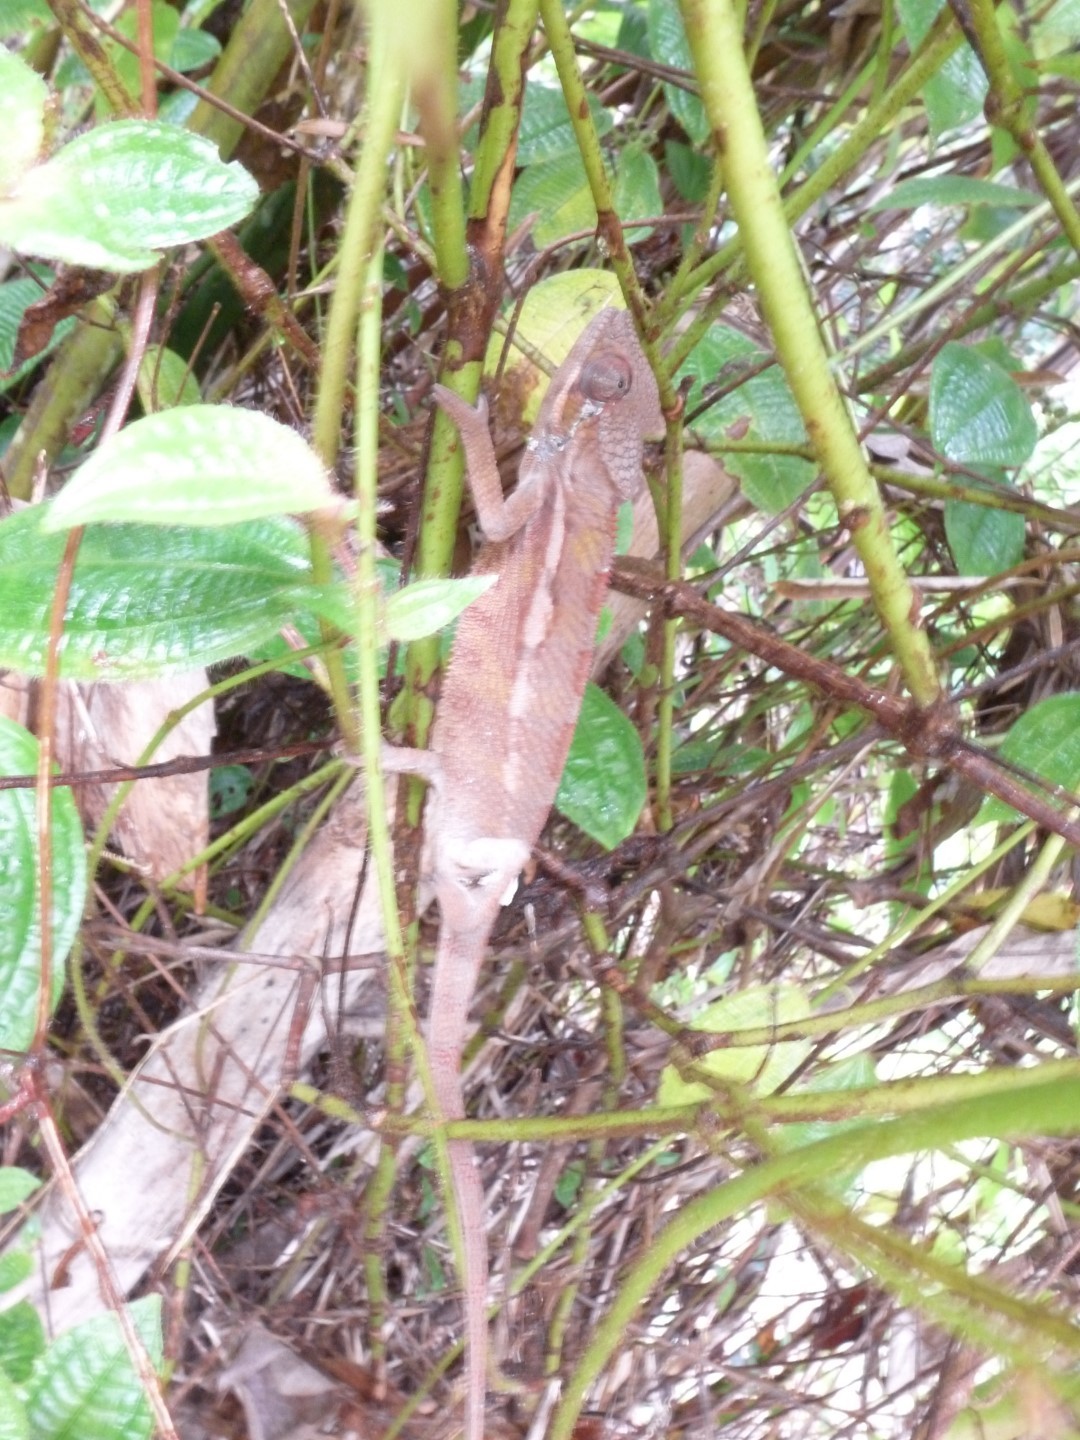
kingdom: Animalia
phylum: Chordata
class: Squamata
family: Chamaeleonidae
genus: Furcifer
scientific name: Furcifer pardalis
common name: Panther chameleon
